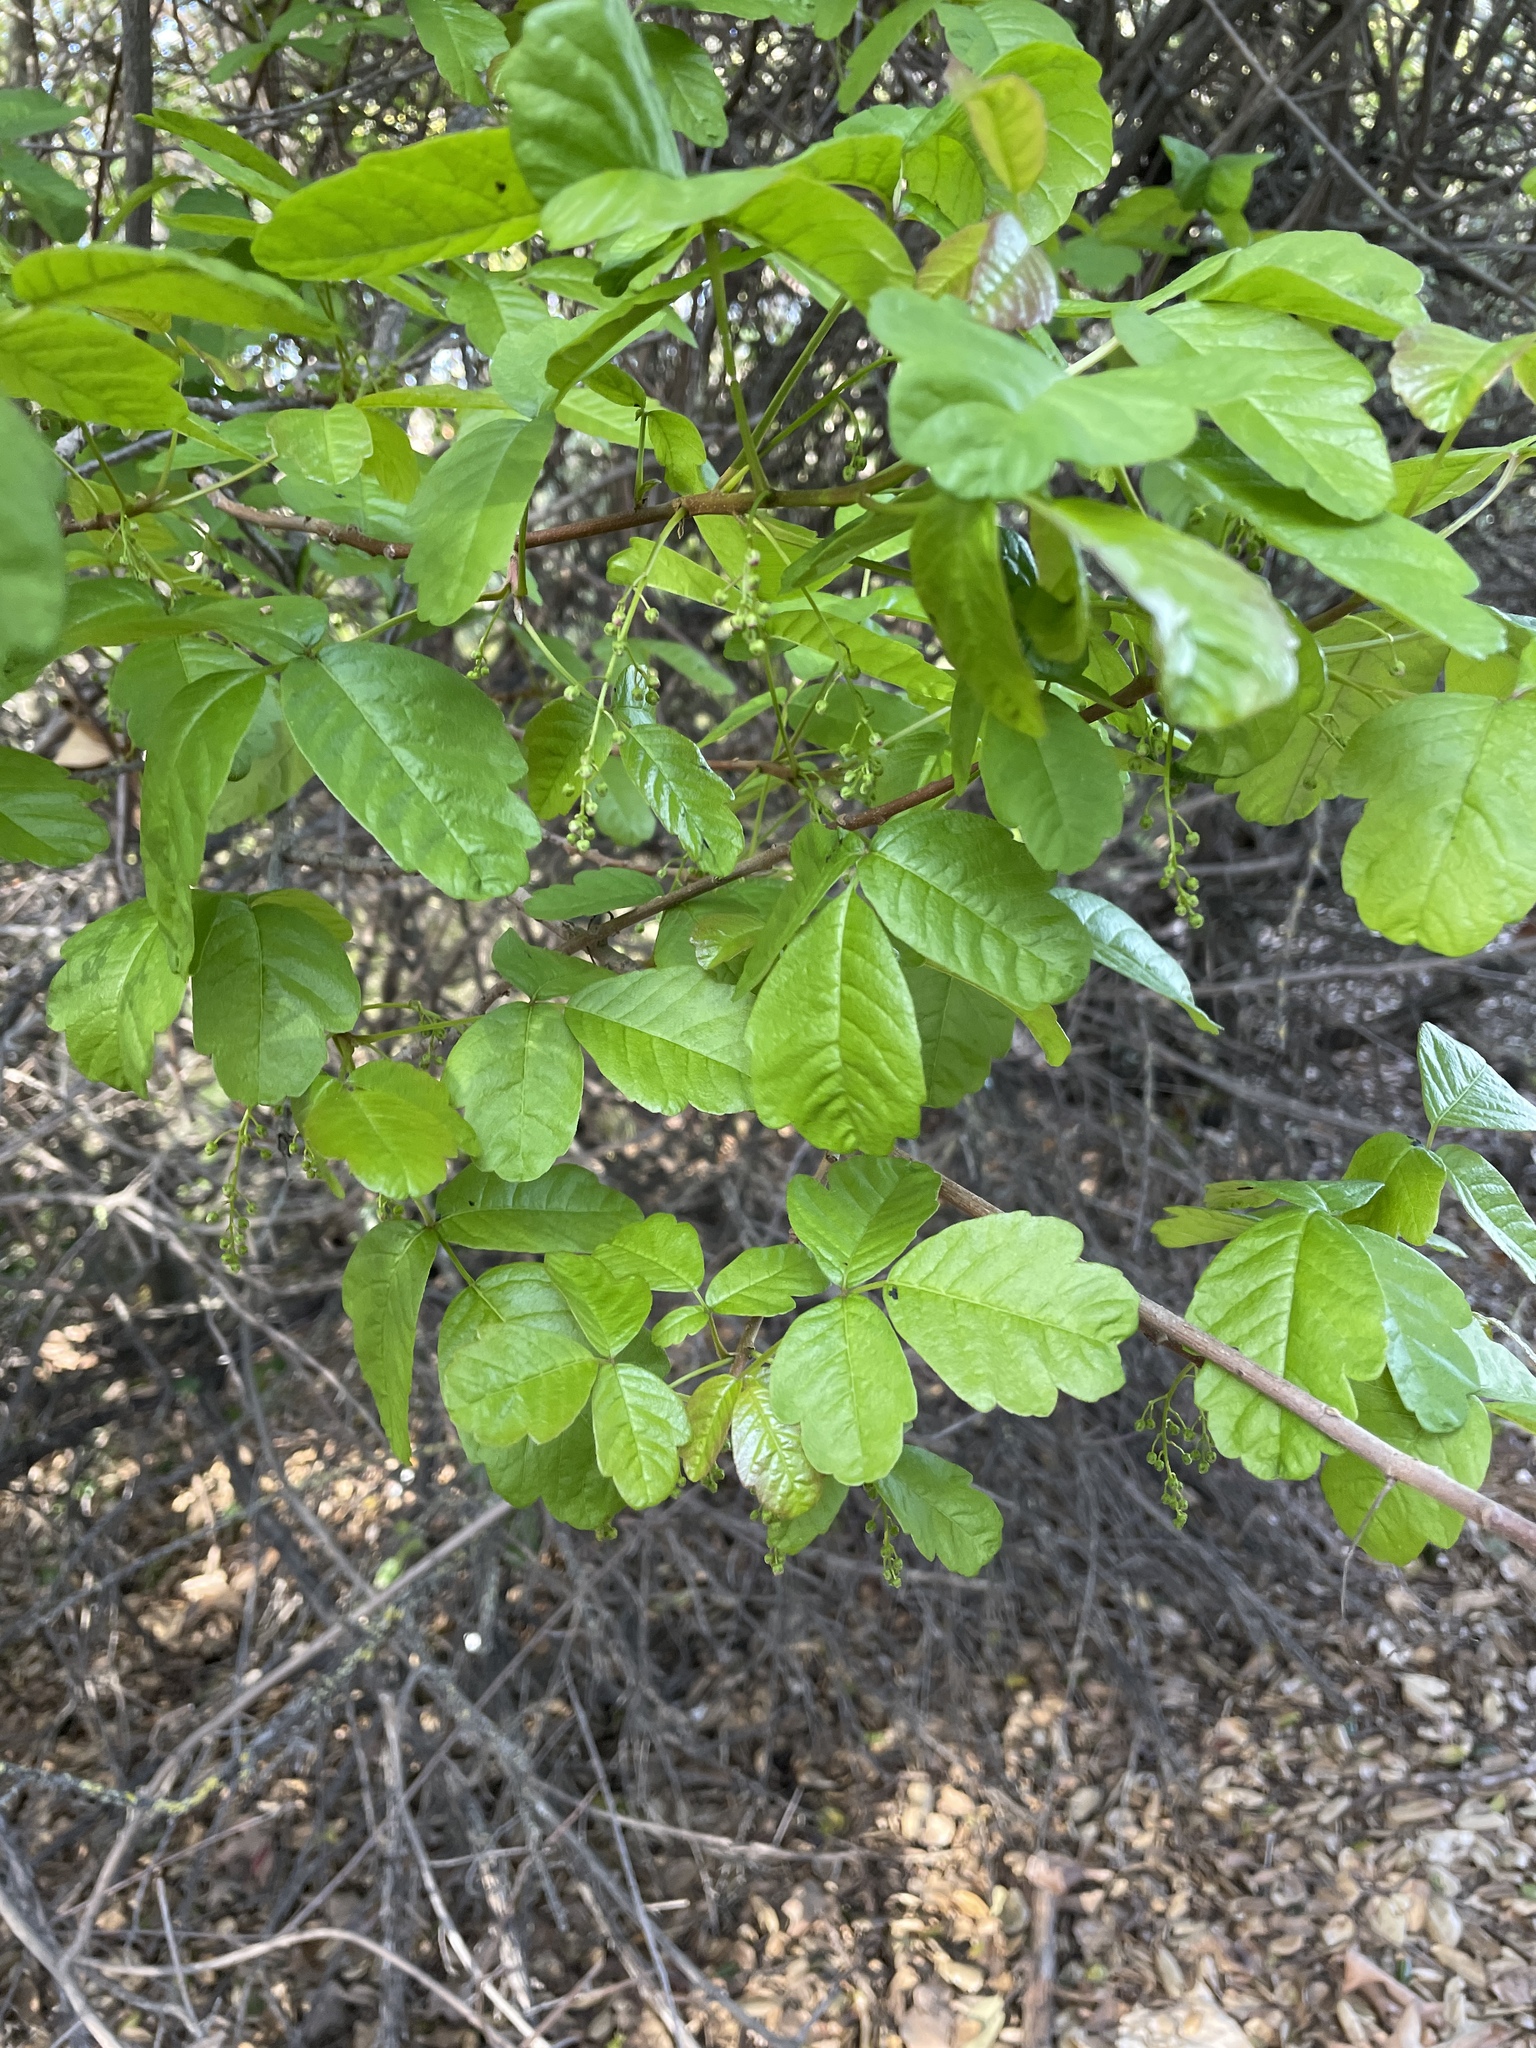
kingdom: Plantae
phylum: Tracheophyta
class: Magnoliopsida
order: Sapindales
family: Anacardiaceae
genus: Toxicodendron
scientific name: Toxicodendron diversilobum
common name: Pacific poison-oak
